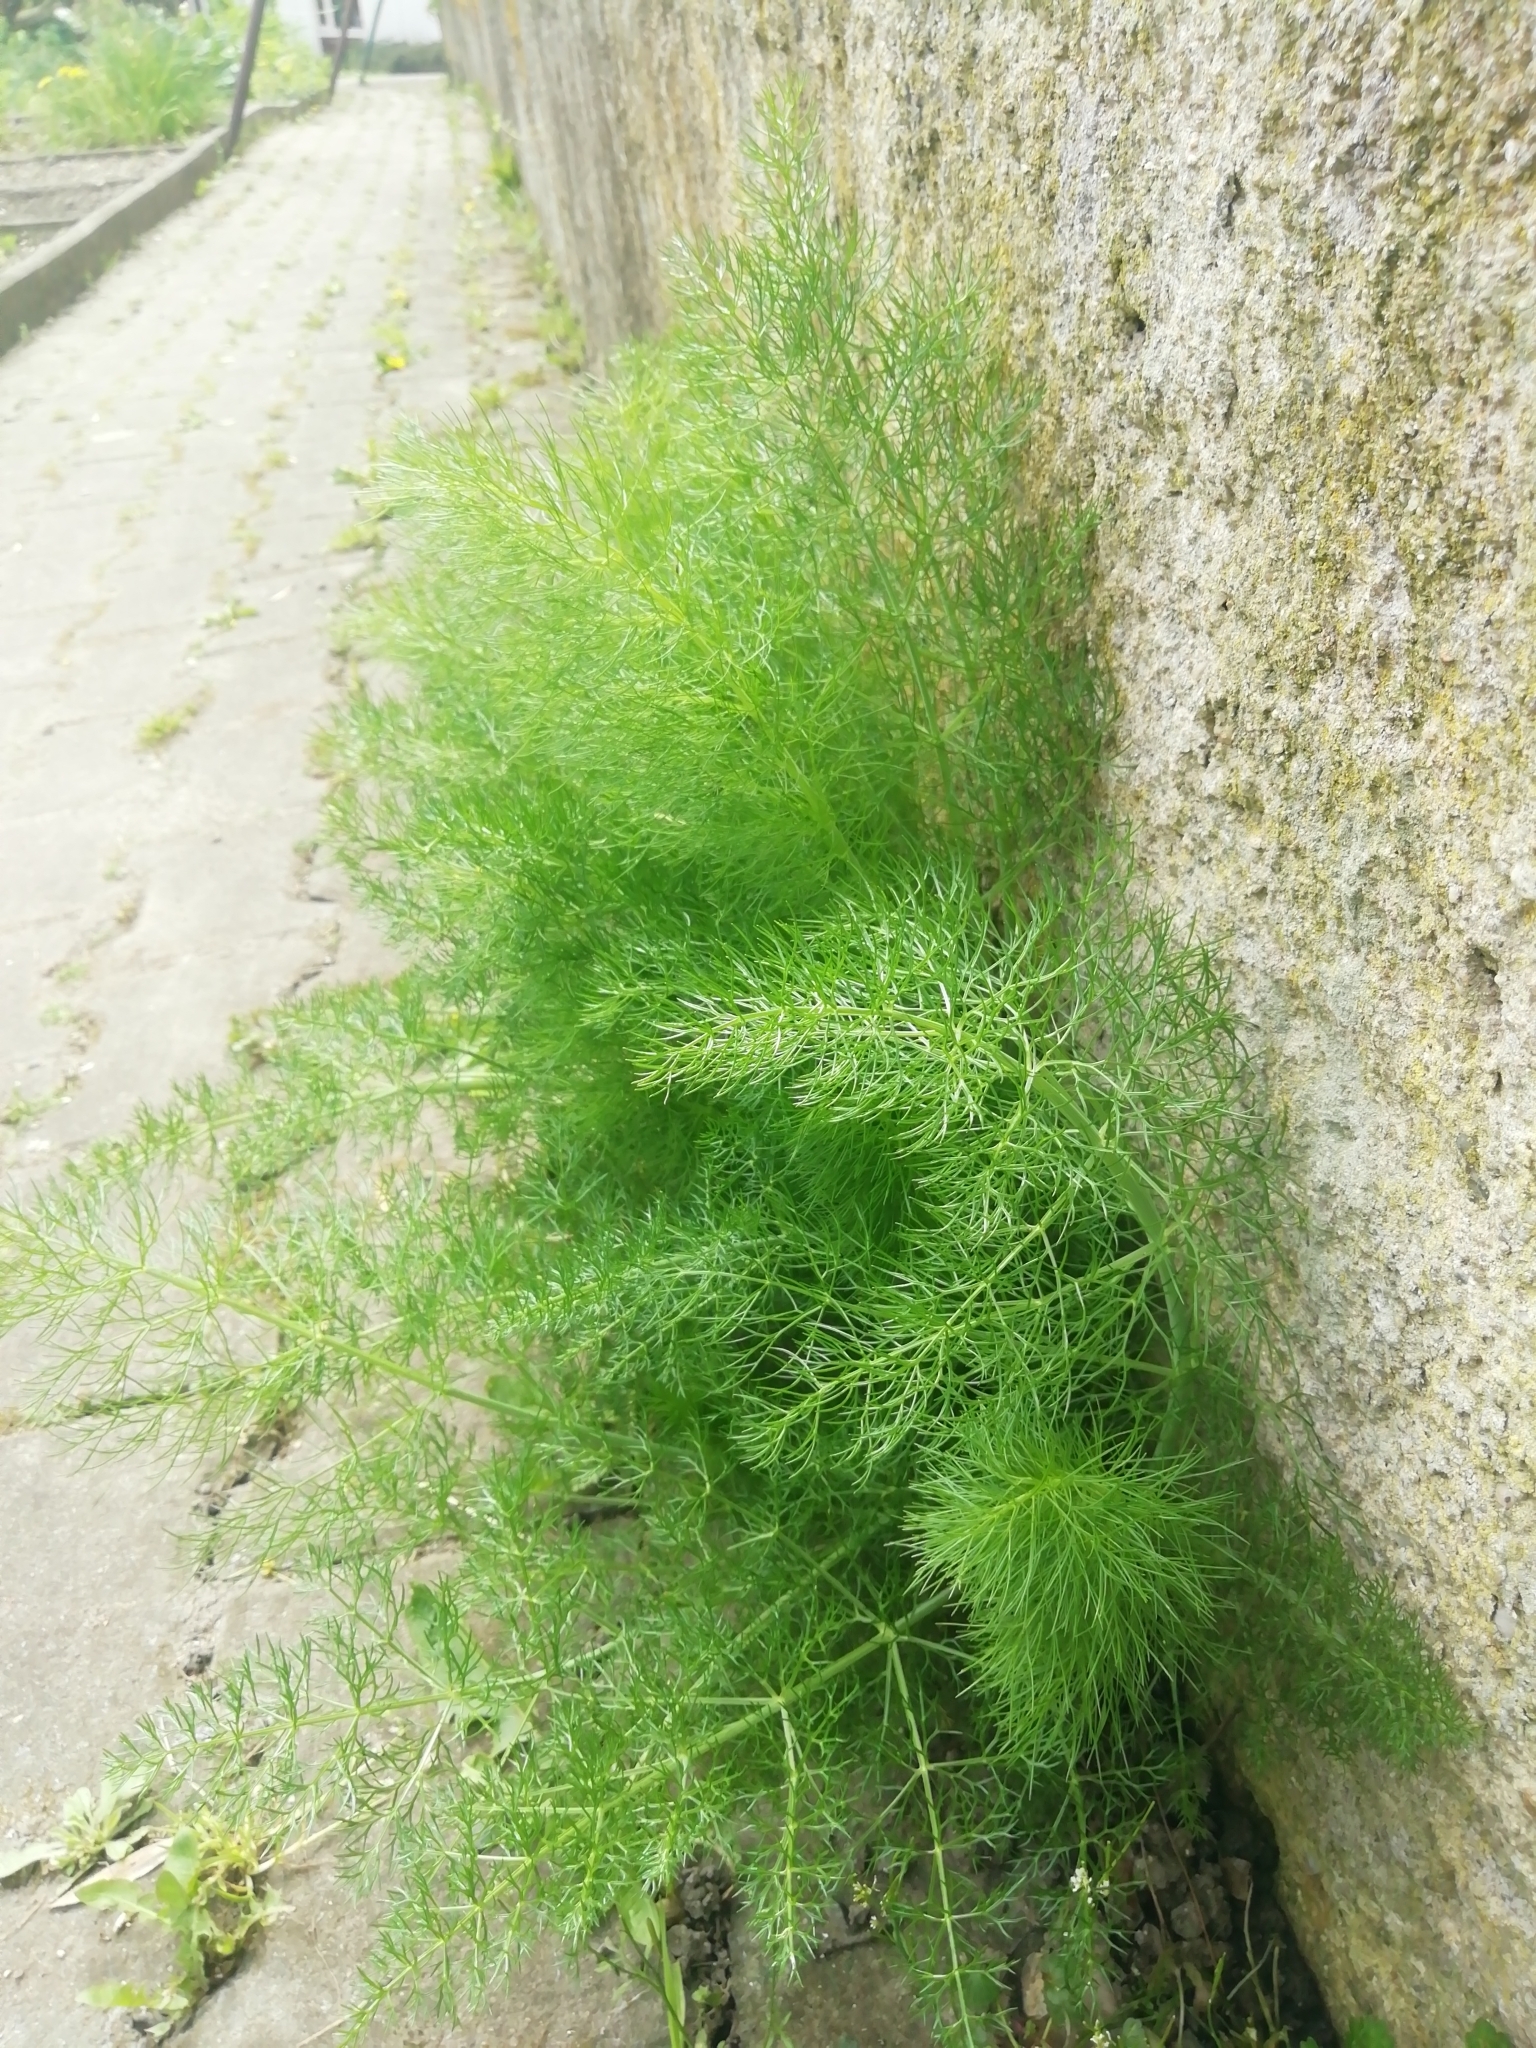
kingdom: Plantae
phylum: Tracheophyta
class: Magnoliopsida
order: Apiales
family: Apiaceae
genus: Foeniculum
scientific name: Foeniculum vulgare
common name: Fennel
